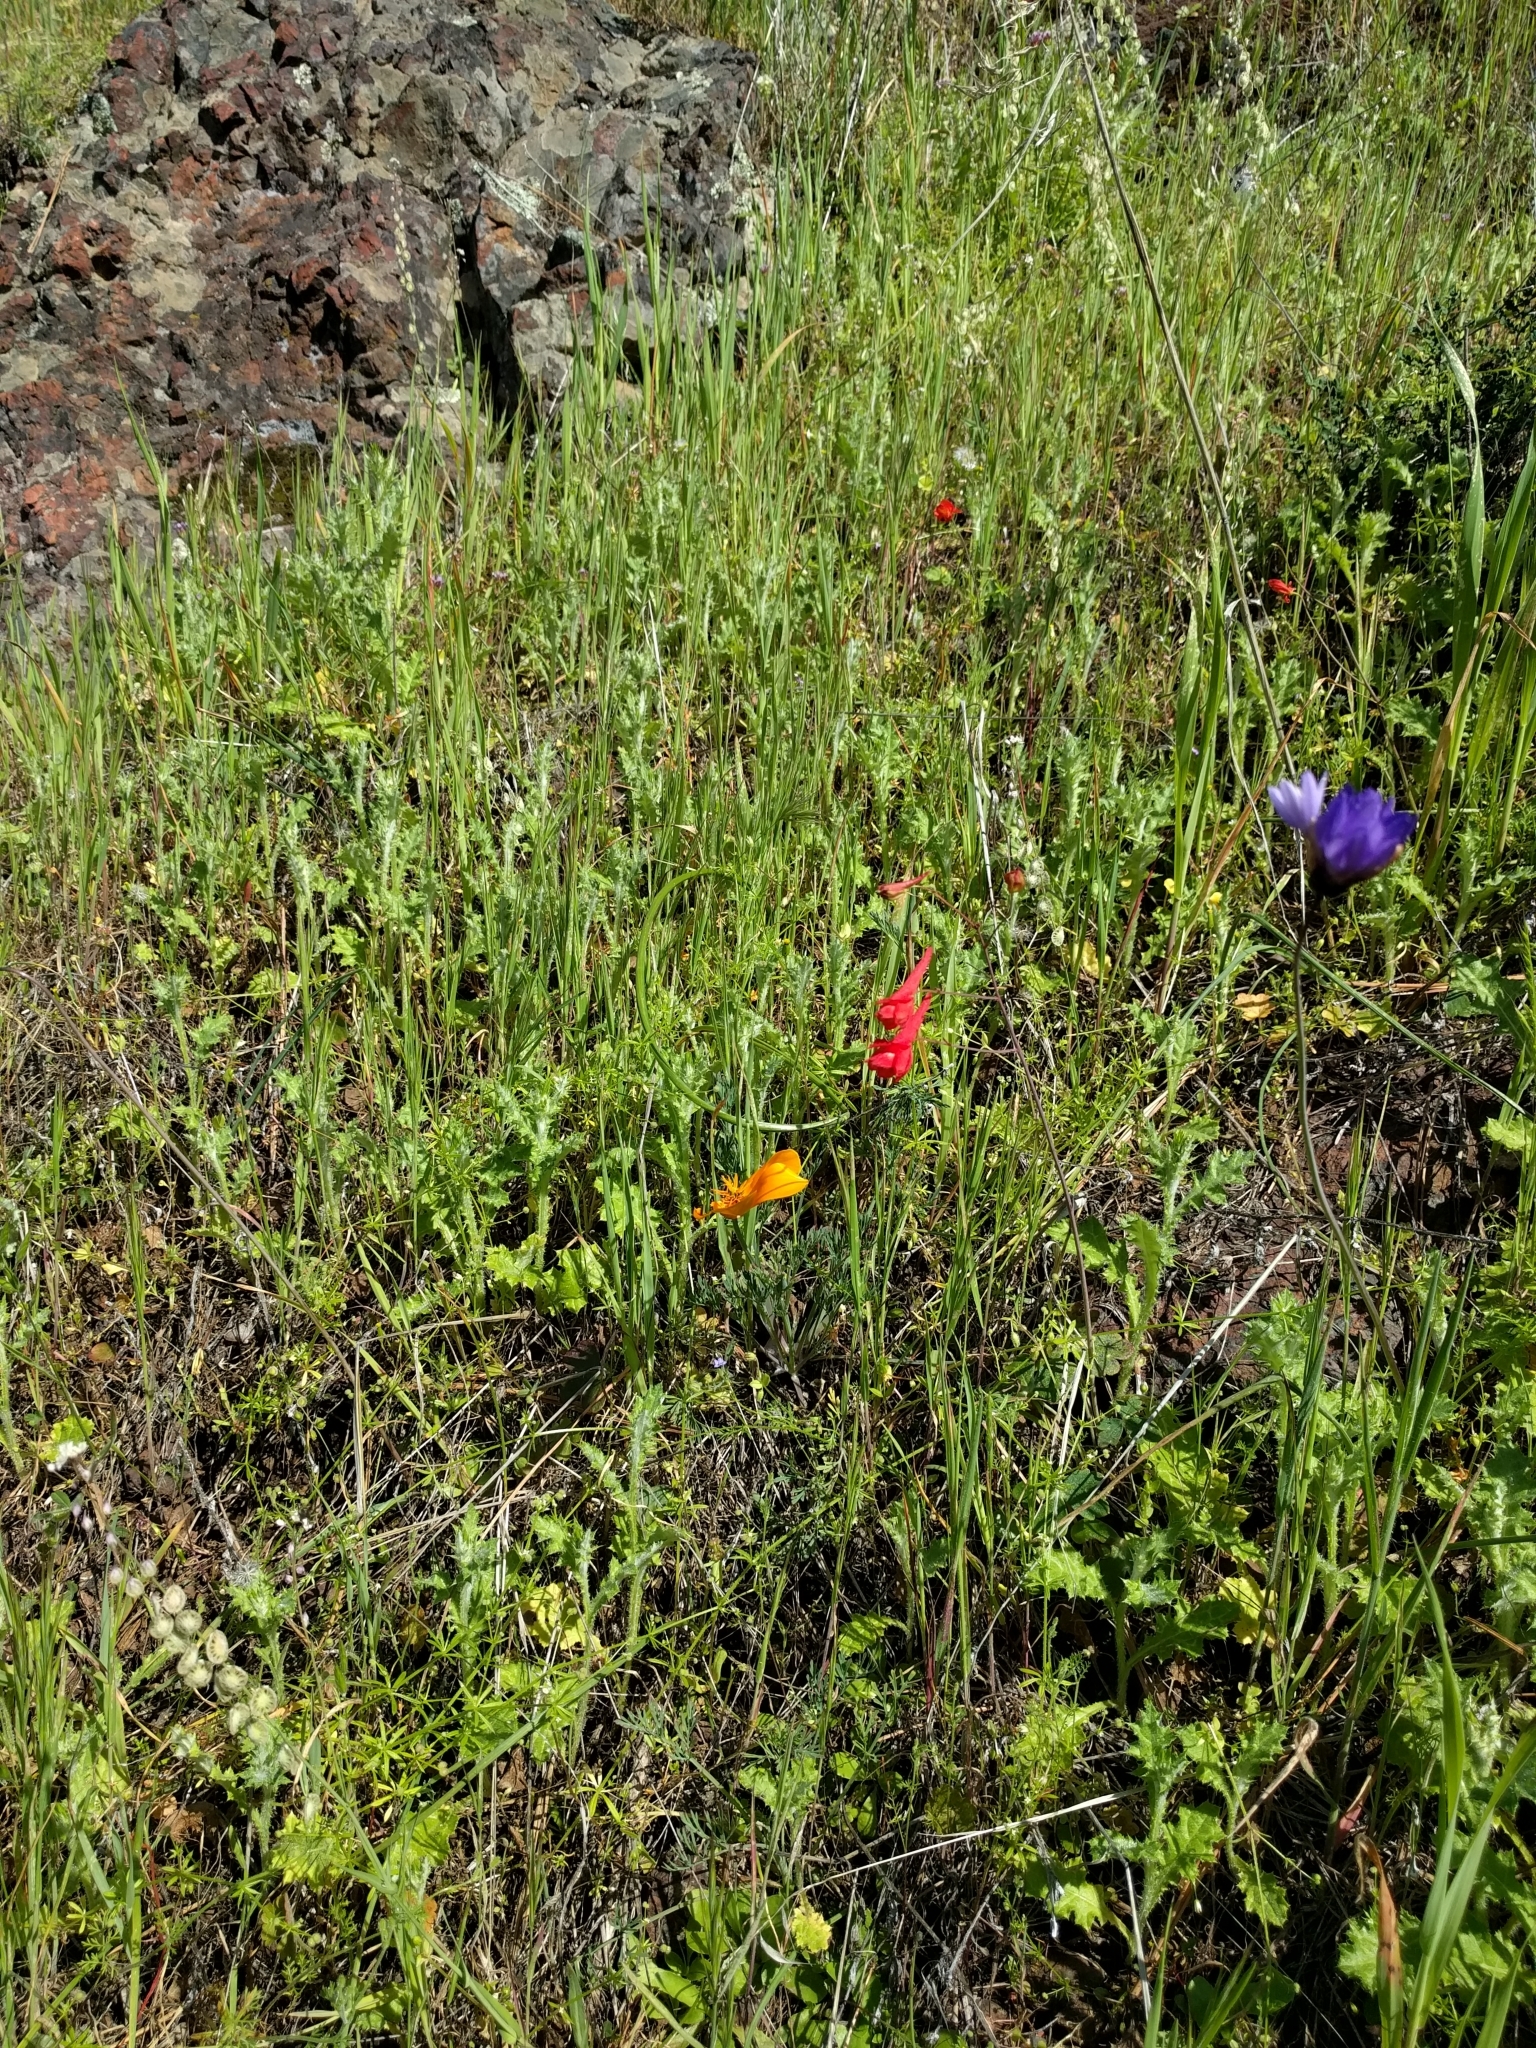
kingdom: Plantae
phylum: Tracheophyta
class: Magnoliopsida
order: Ranunculales
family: Ranunculaceae
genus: Delphinium
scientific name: Delphinium nudicaule
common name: Red larkspur
